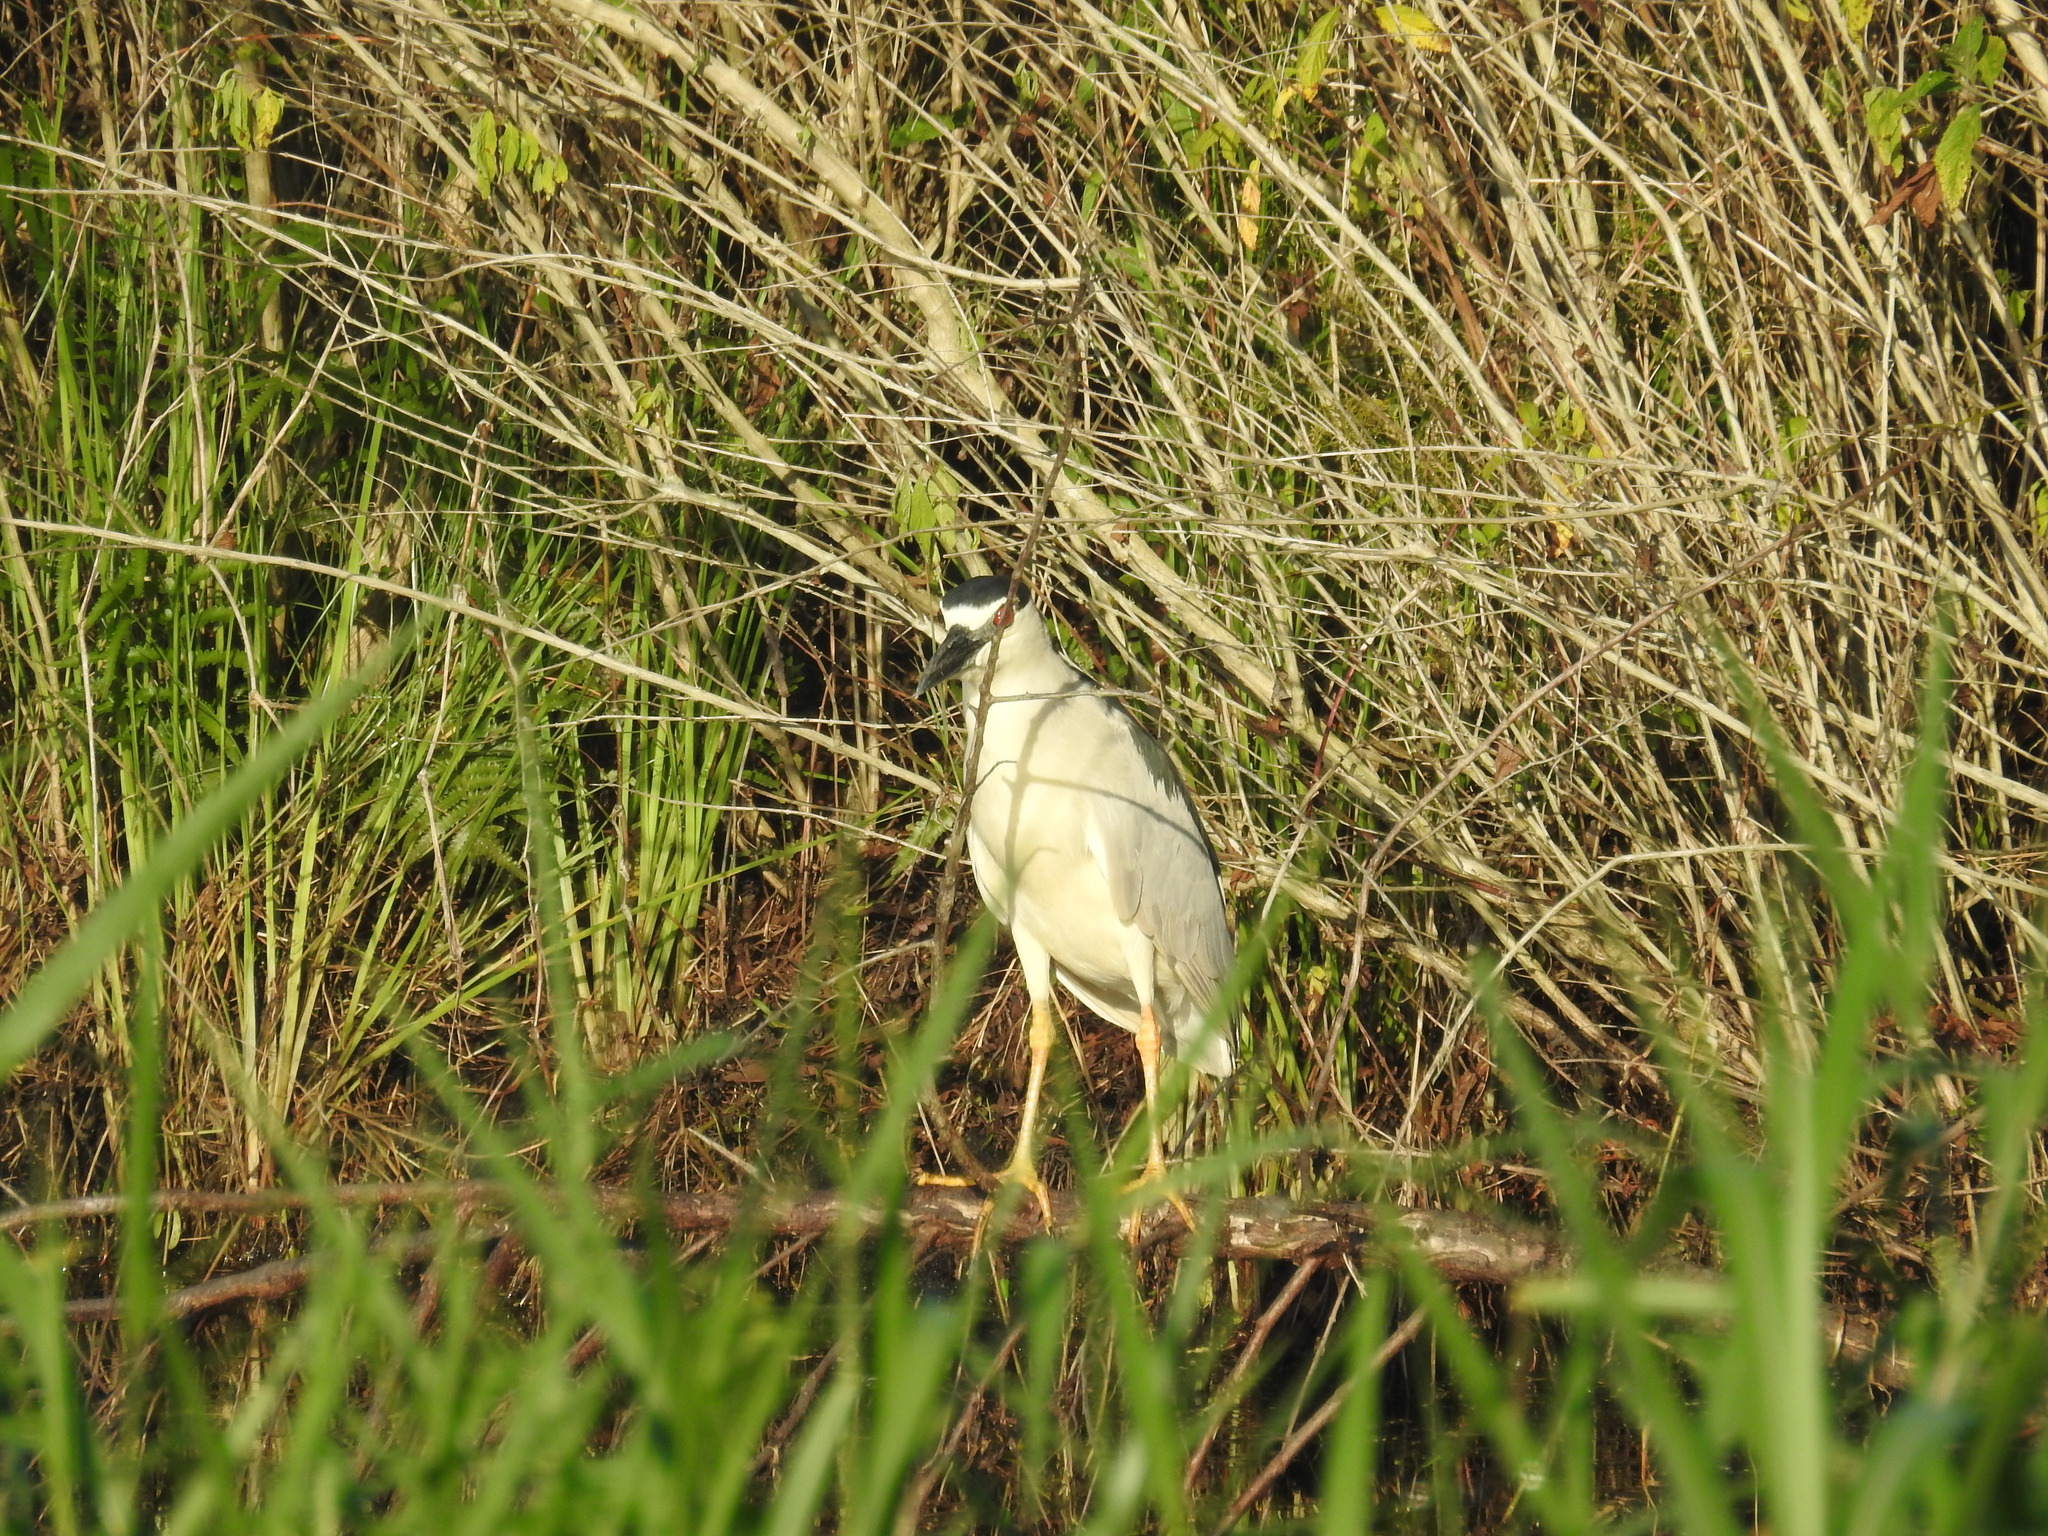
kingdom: Animalia
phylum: Chordata
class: Aves
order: Pelecaniformes
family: Ardeidae
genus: Nycticorax
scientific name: Nycticorax nycticorax
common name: Black-crowned night heron
